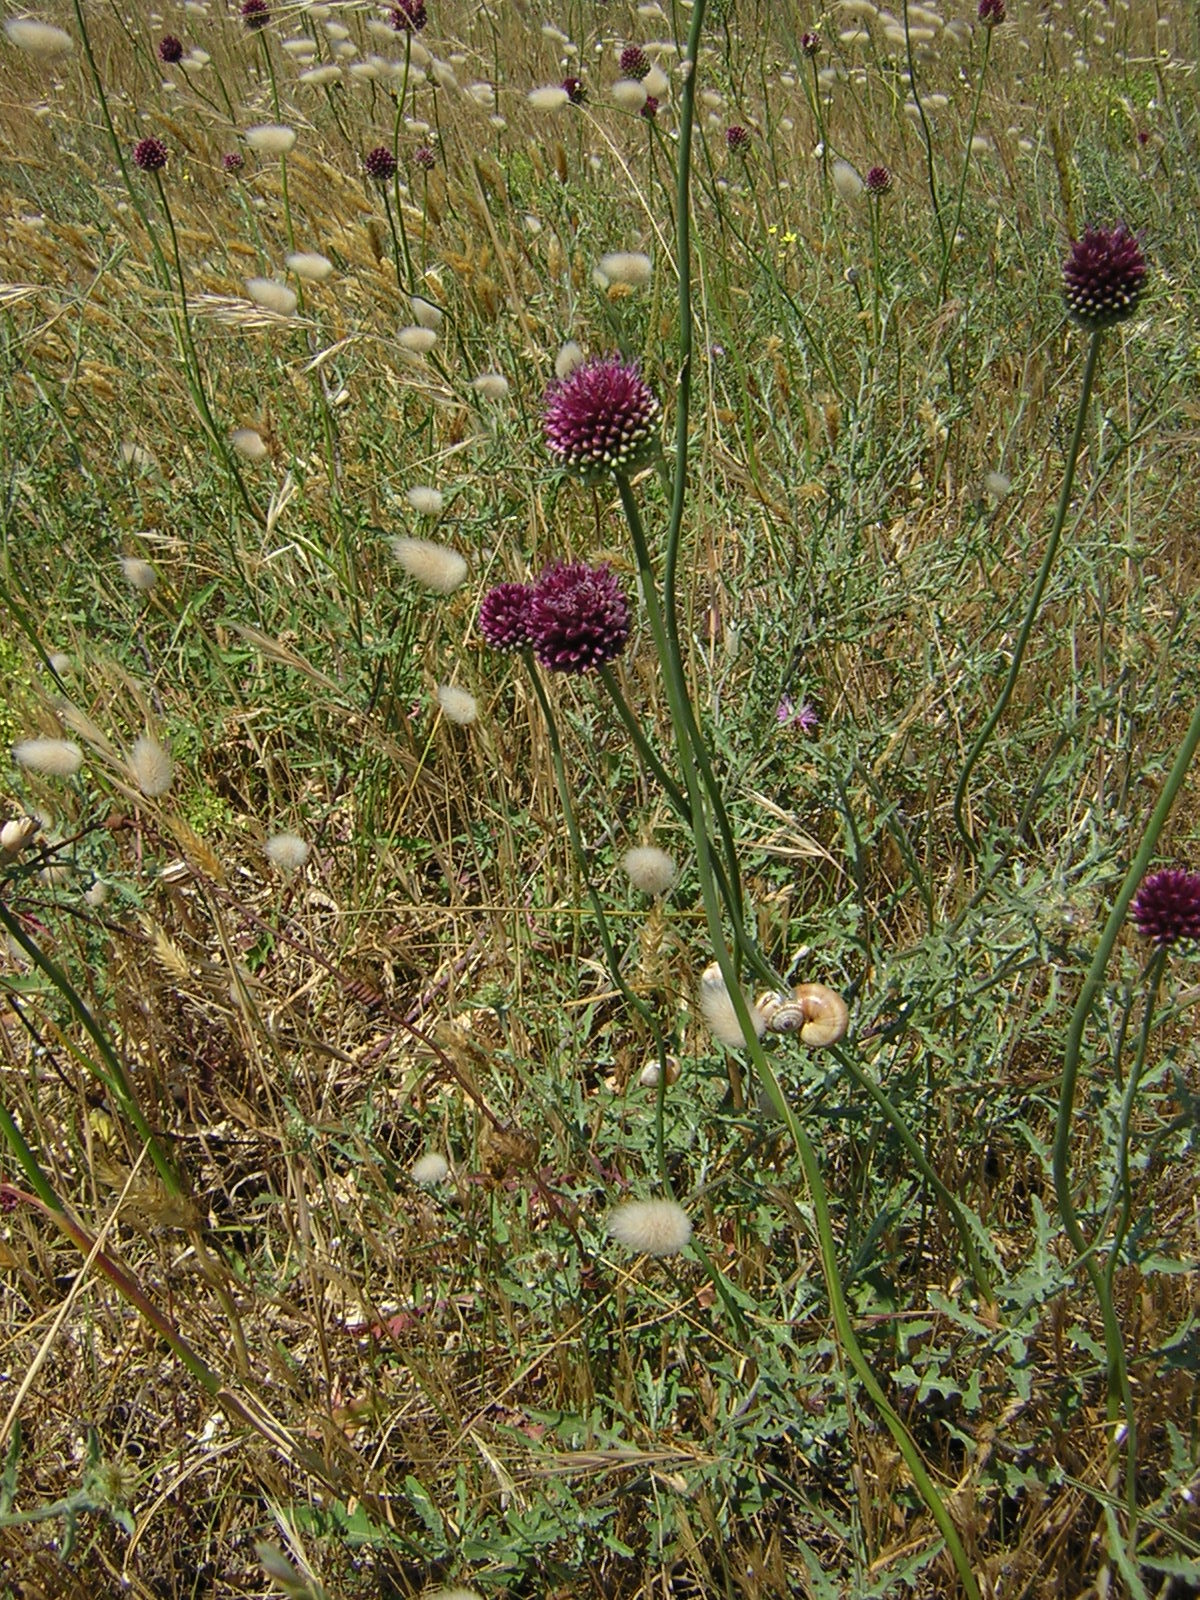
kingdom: Plantae
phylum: Tracheophyta
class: Liliopsida
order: Asparagales
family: Amaryllidaceae
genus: Allium
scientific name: Allium sphaerocephalon
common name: Round-headed leek
